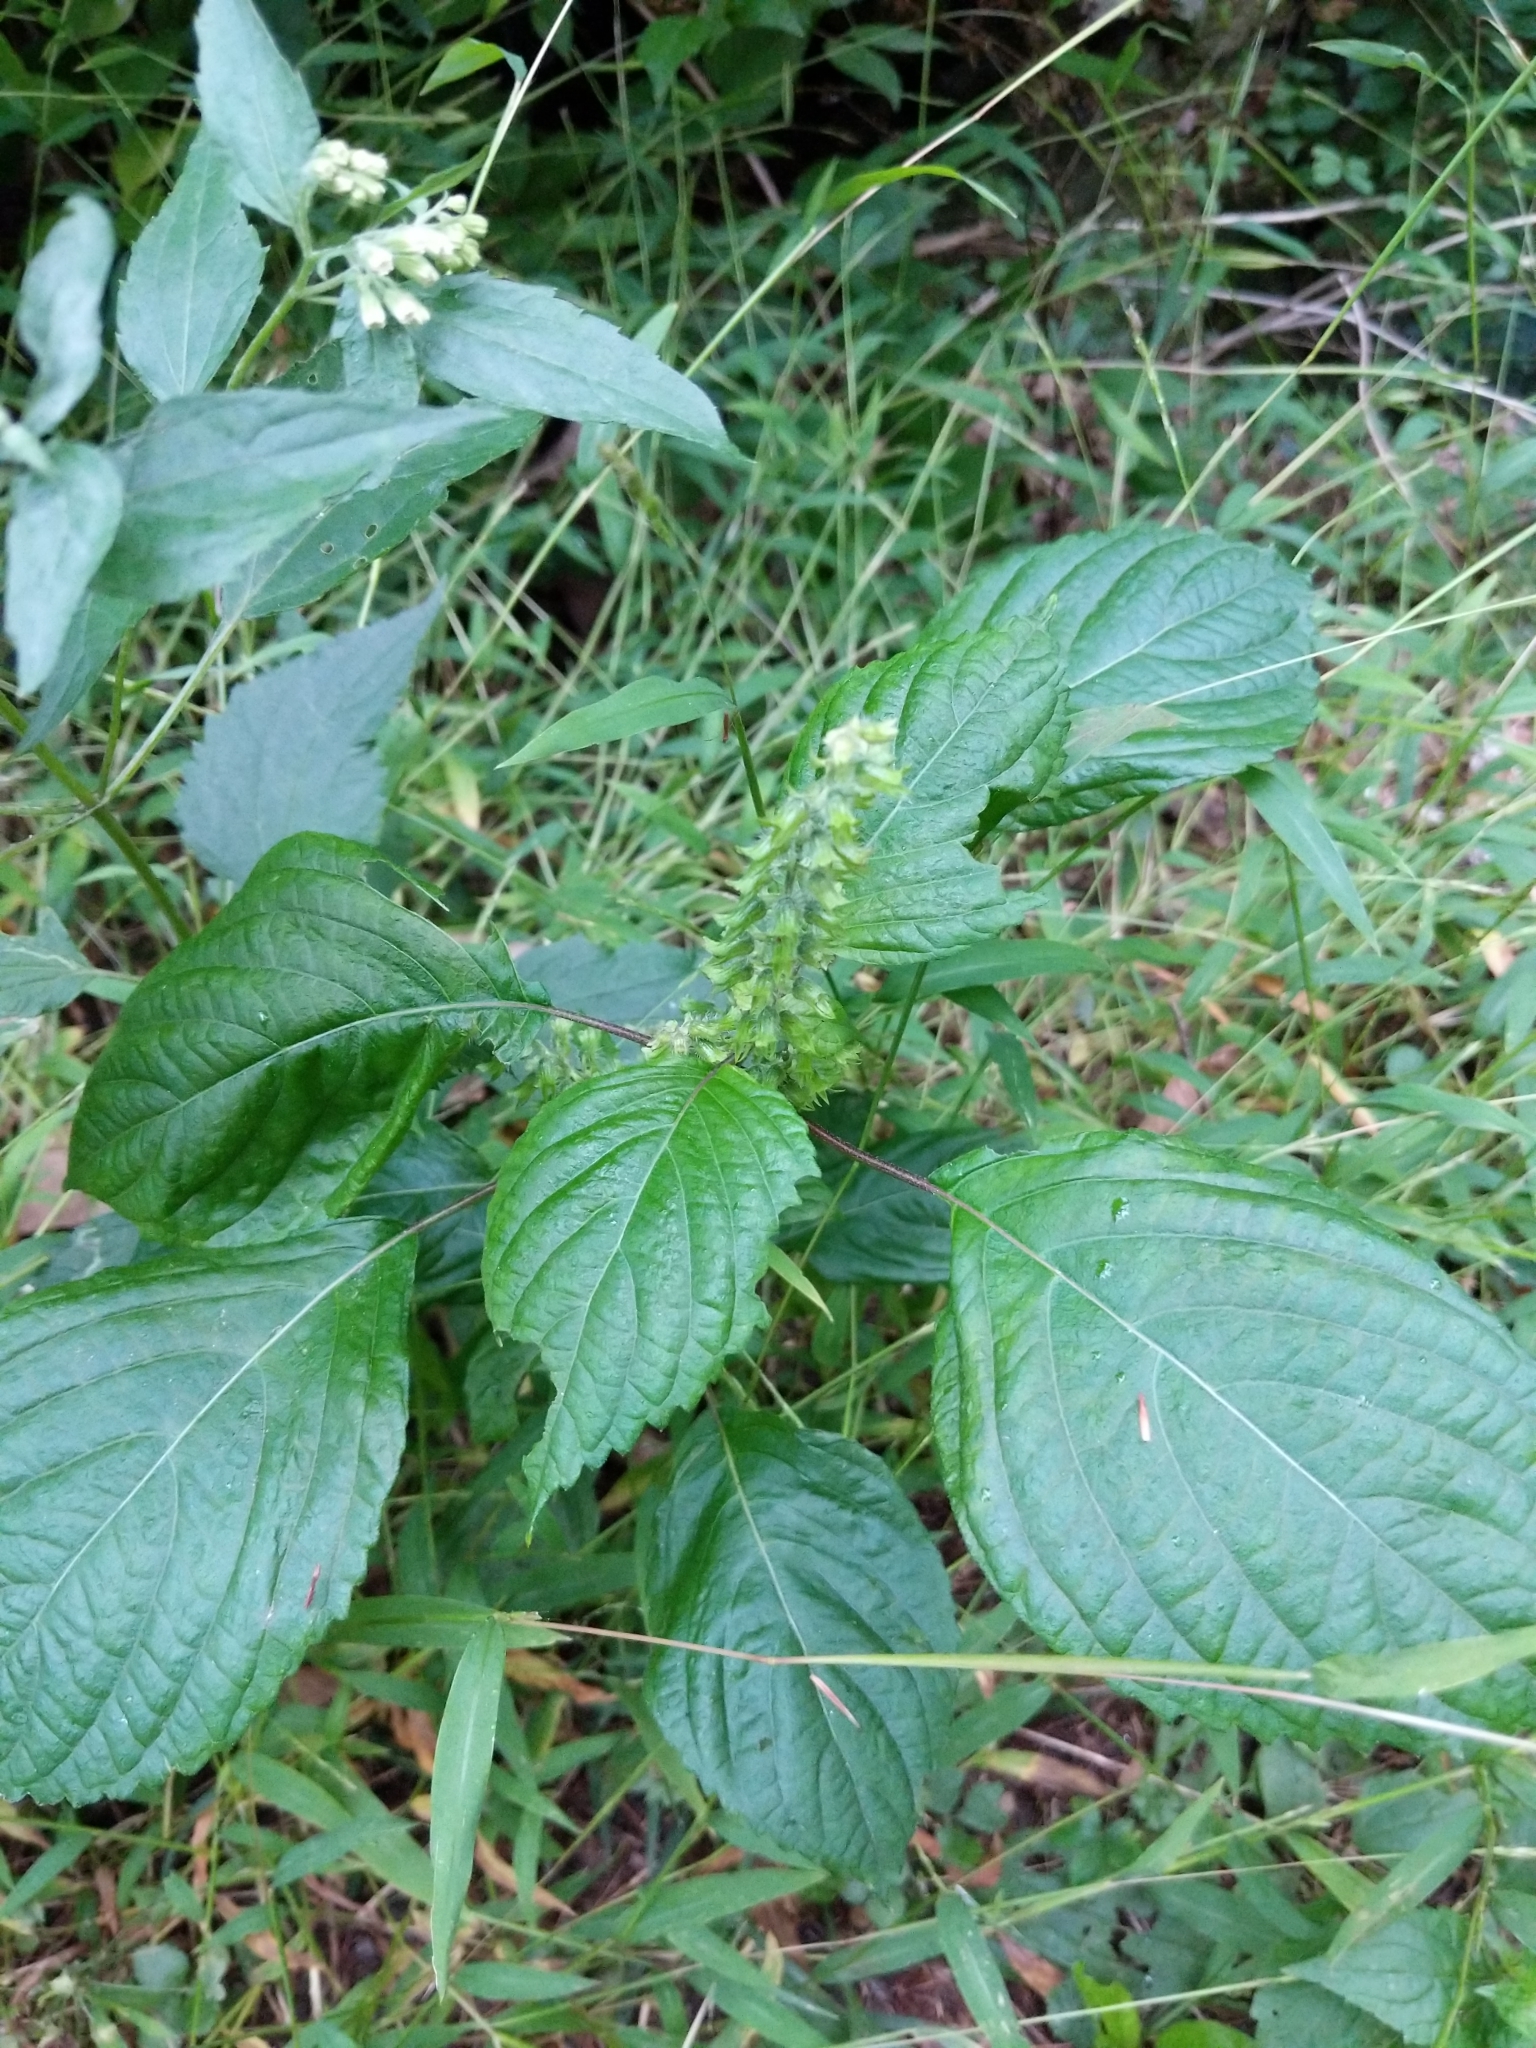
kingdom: Plantae
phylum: Tracheophyta
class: Magnoliopsida
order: Lamiales
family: Lamiaceae
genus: Perilla
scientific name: Perilla frutescens
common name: Perilla
